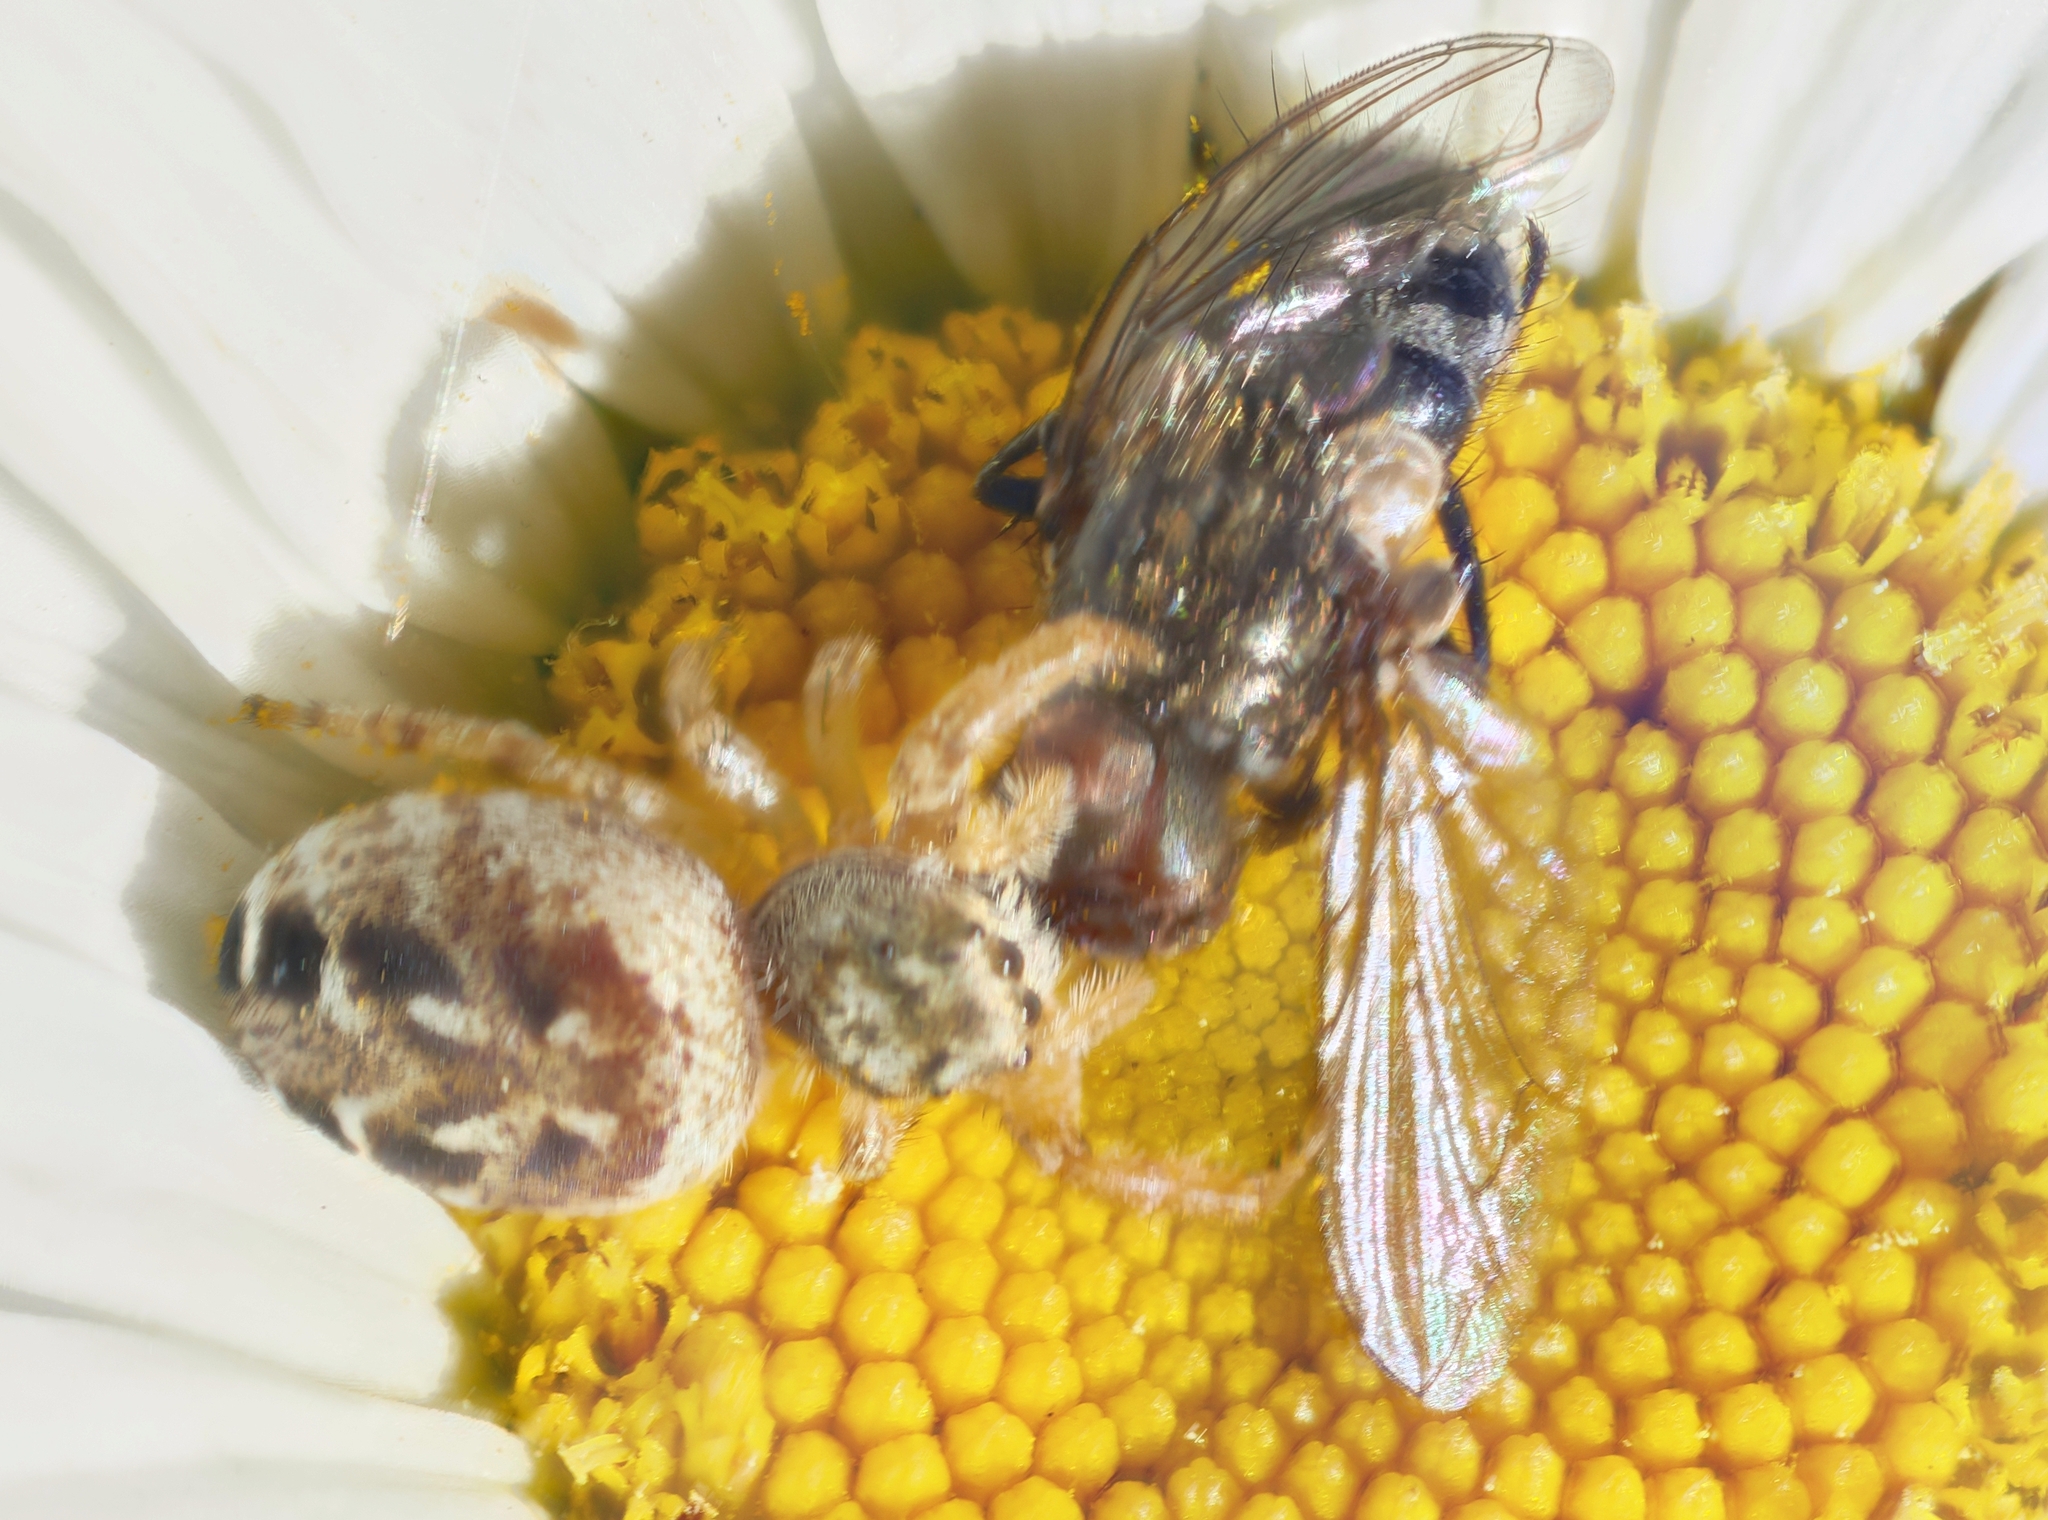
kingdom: Animalia
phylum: Arthropoda
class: Insecta
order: Diptera
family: Polleniidae
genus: Pollenia
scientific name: Pollenia
